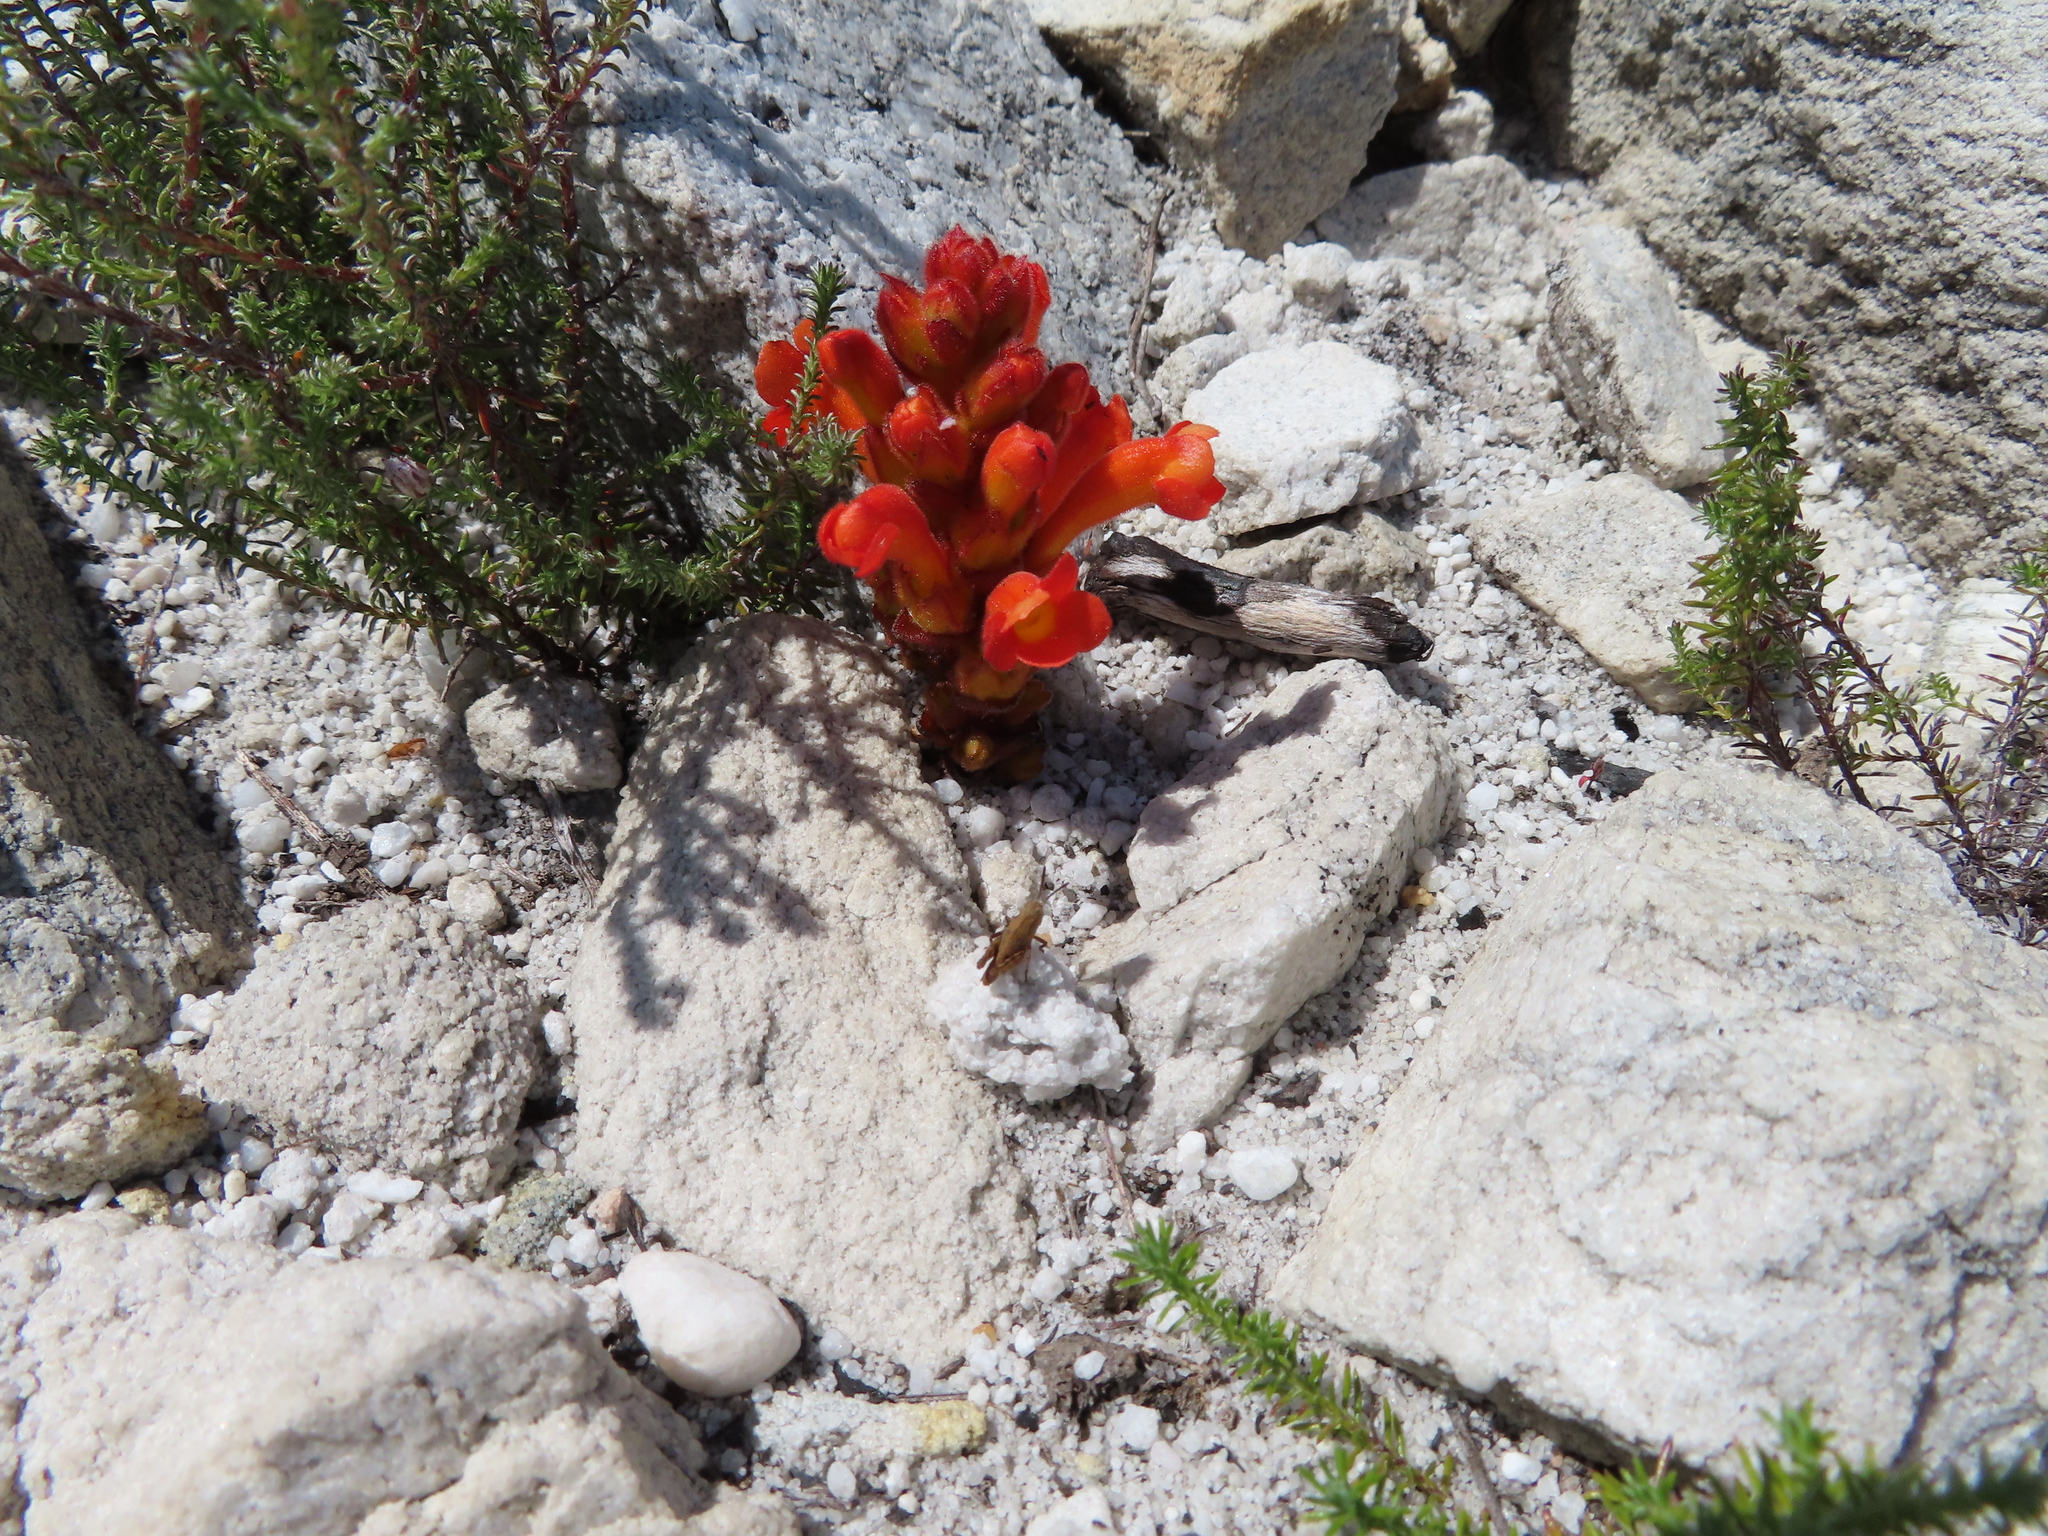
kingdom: Plantae
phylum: Tracheophyta
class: Magnoliopsida
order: Lamiales
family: Orobanchaceae
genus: Harveya
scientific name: Harveya bolusii
